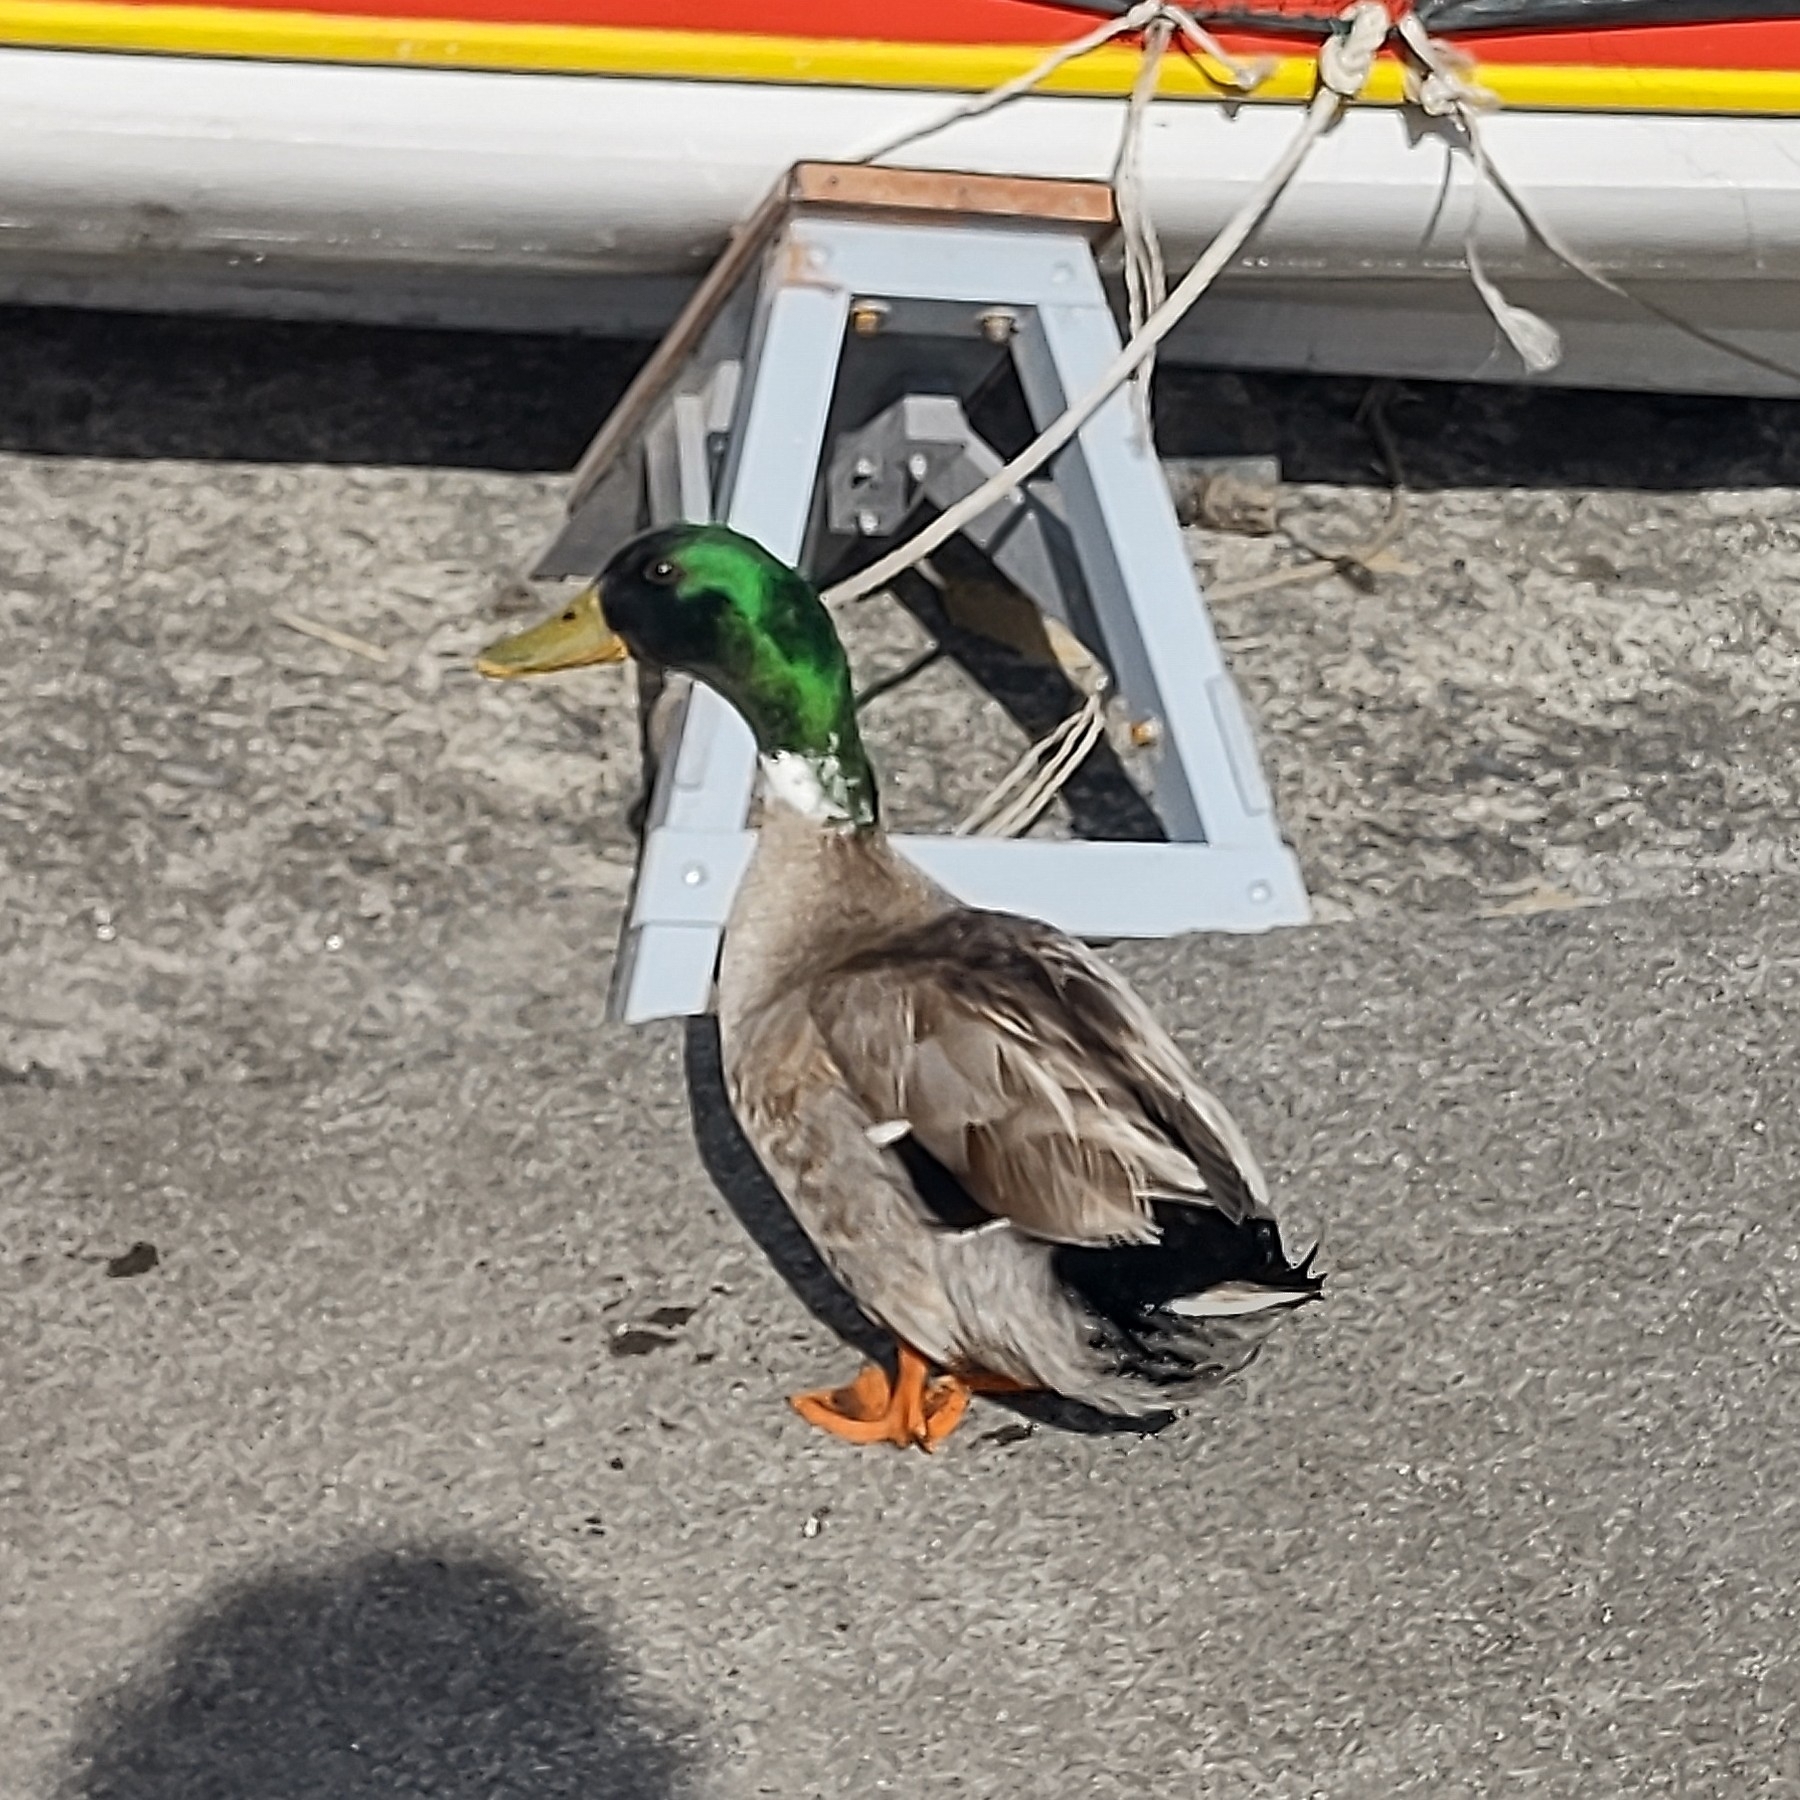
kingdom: Animalia
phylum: Chordata
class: Aves
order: Anseriformes
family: Anatidae
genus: Anas
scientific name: Anas platyrhynchos
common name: Mallard
